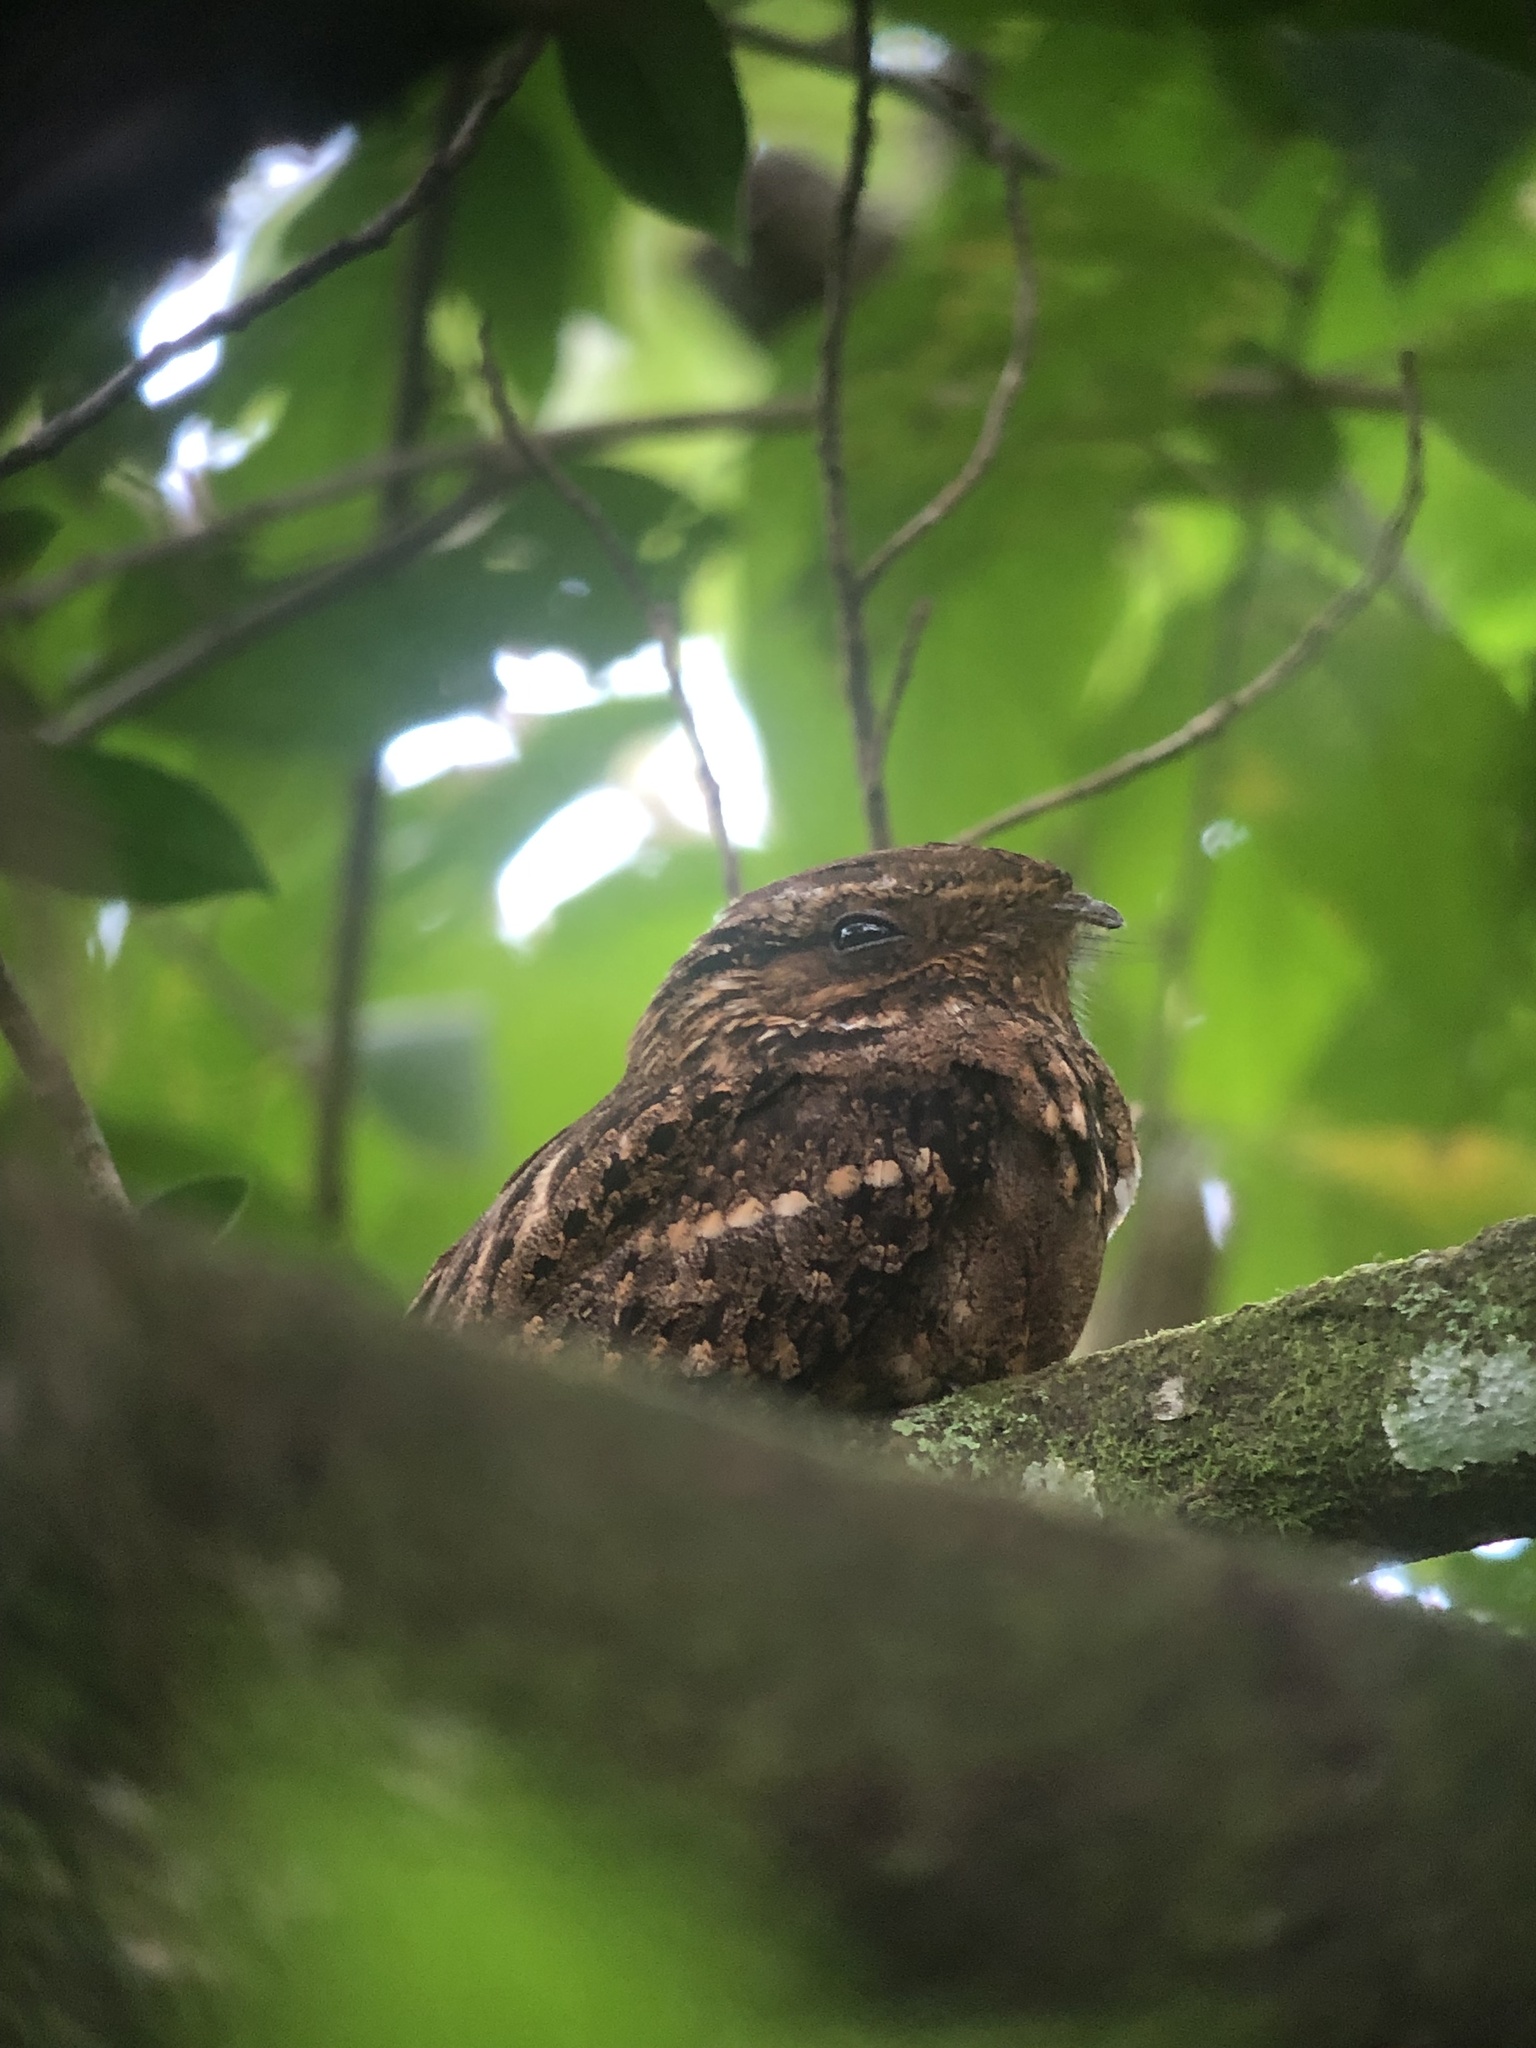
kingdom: Animalia
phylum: Chordata
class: Aves
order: Caprimulgiformes
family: Caprimulgidae
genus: Antrostomus
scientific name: Antrostomus carolinensis
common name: Chuck-will's-widow
